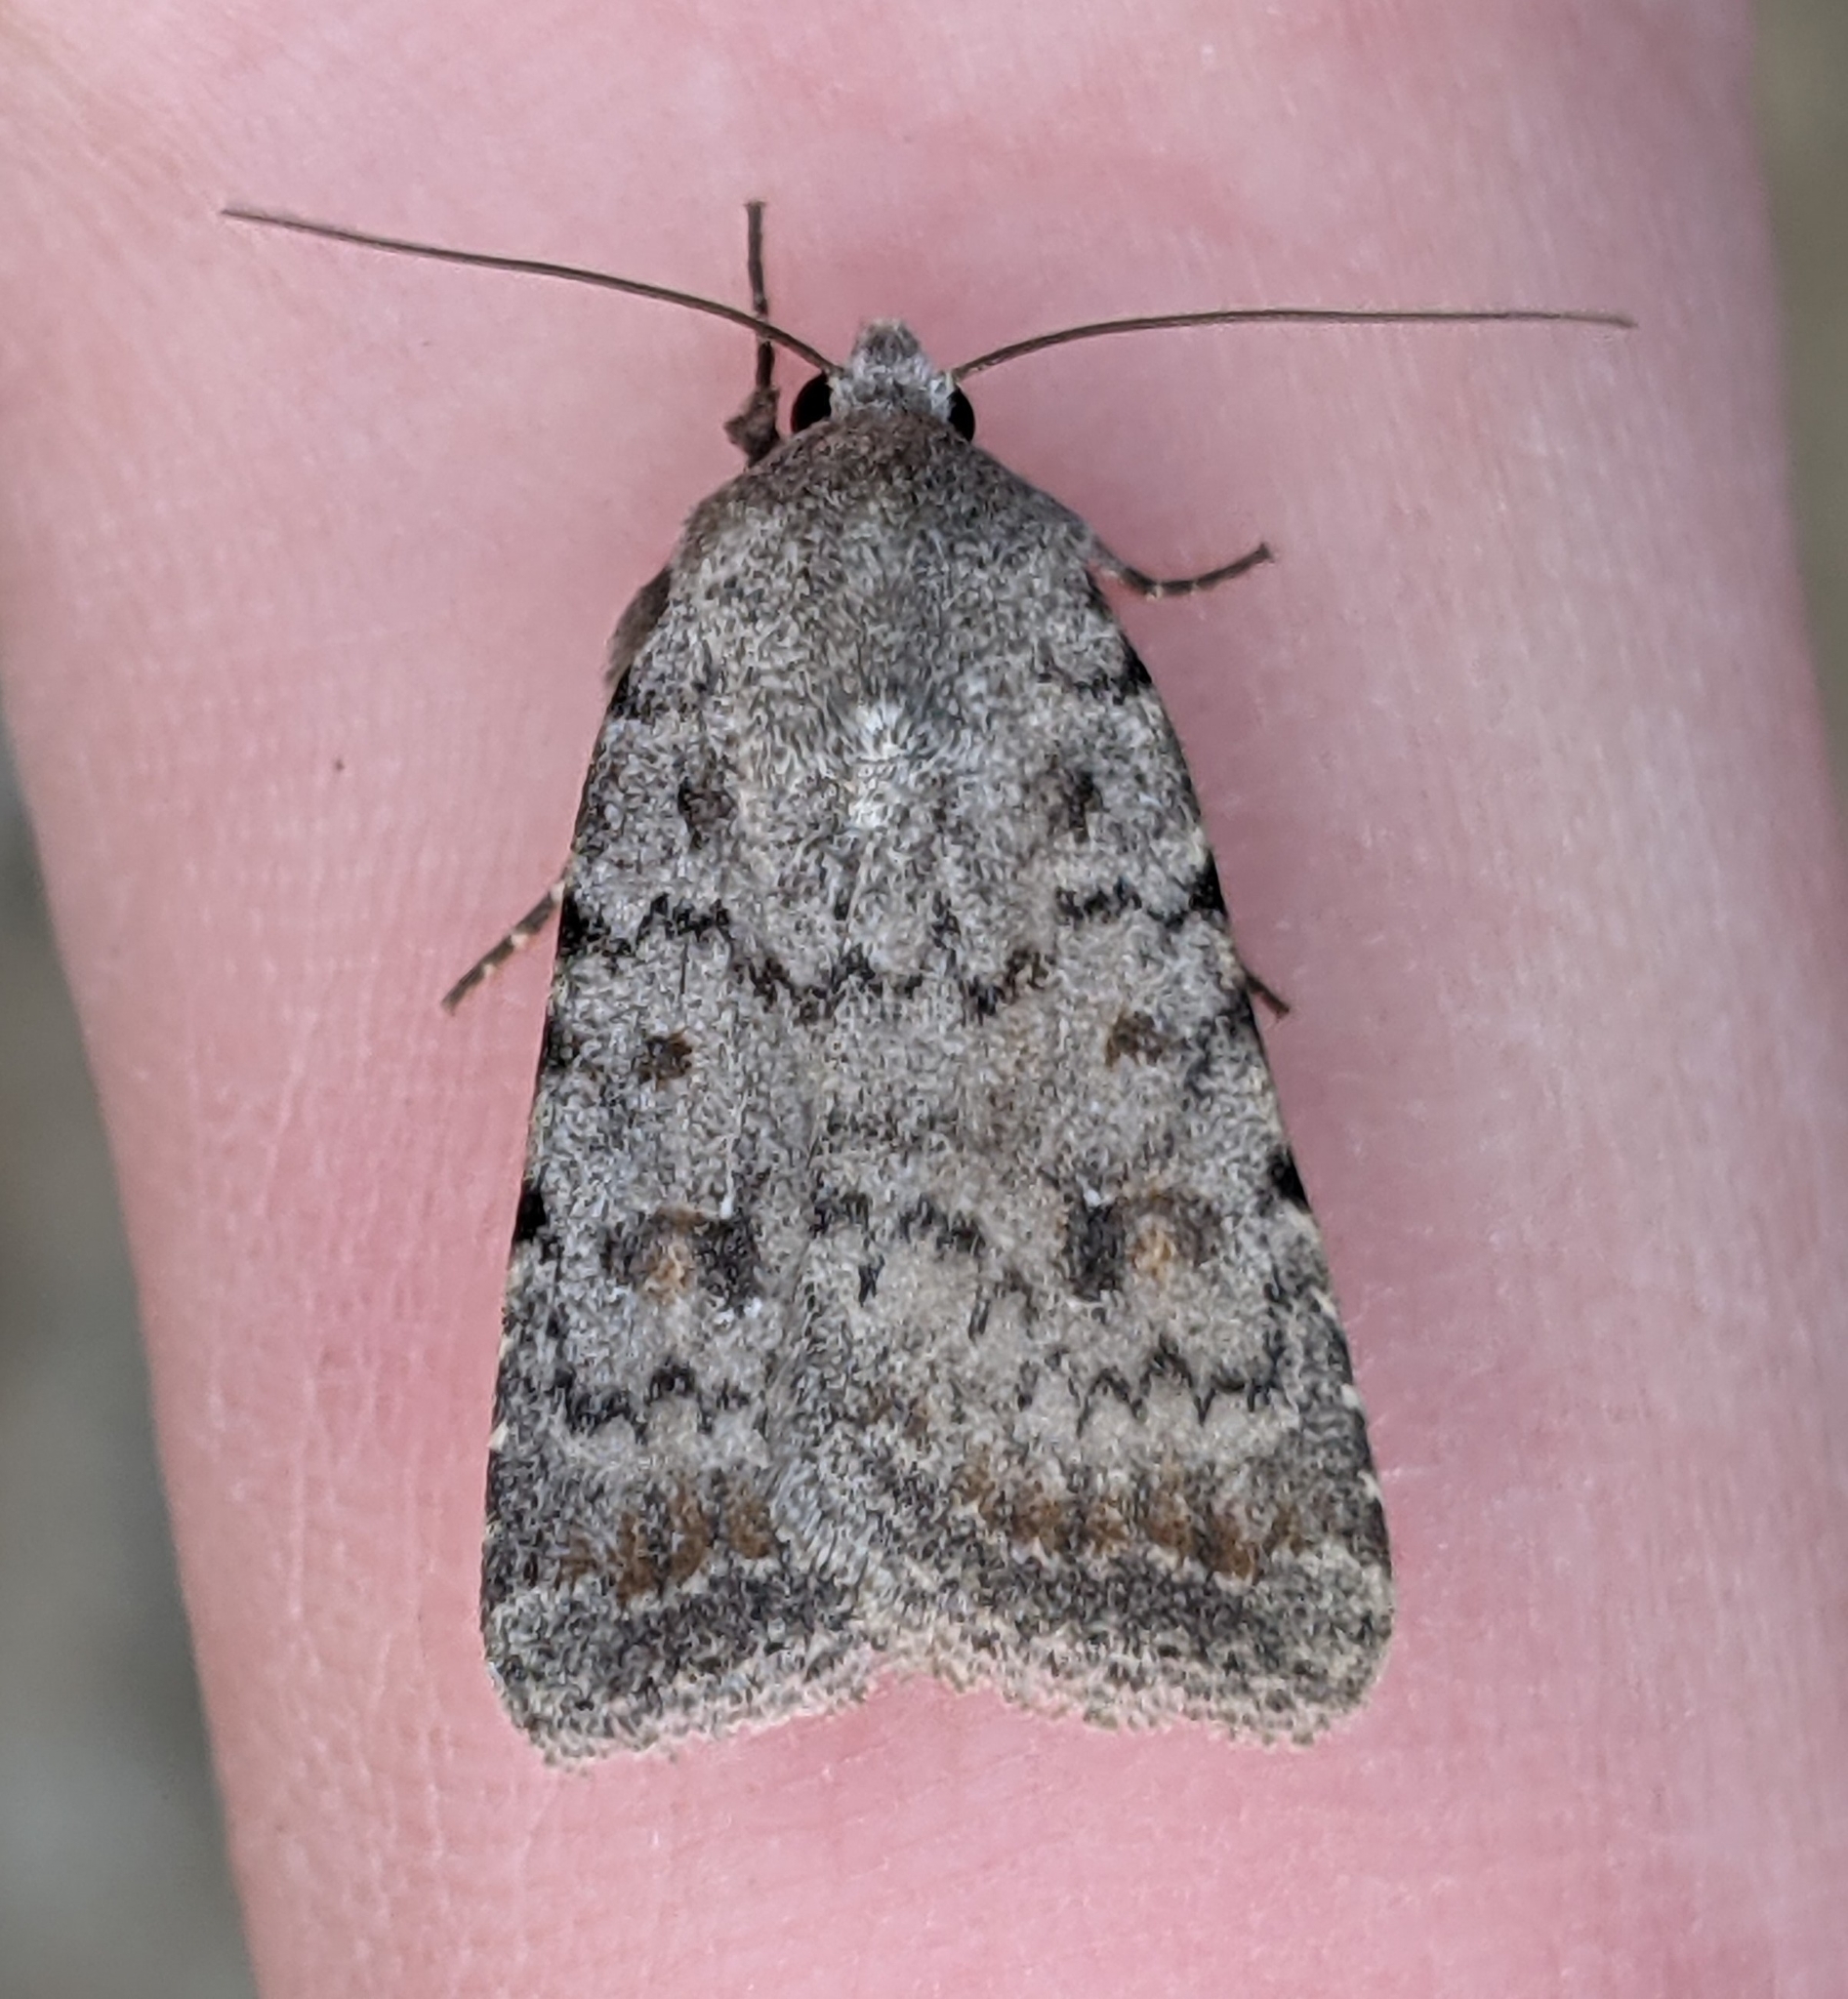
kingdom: Animalia
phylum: Arthropoda
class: Insecta
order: Lepidoptera
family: Noctuidae
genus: Caradrina
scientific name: Caradrina montana
